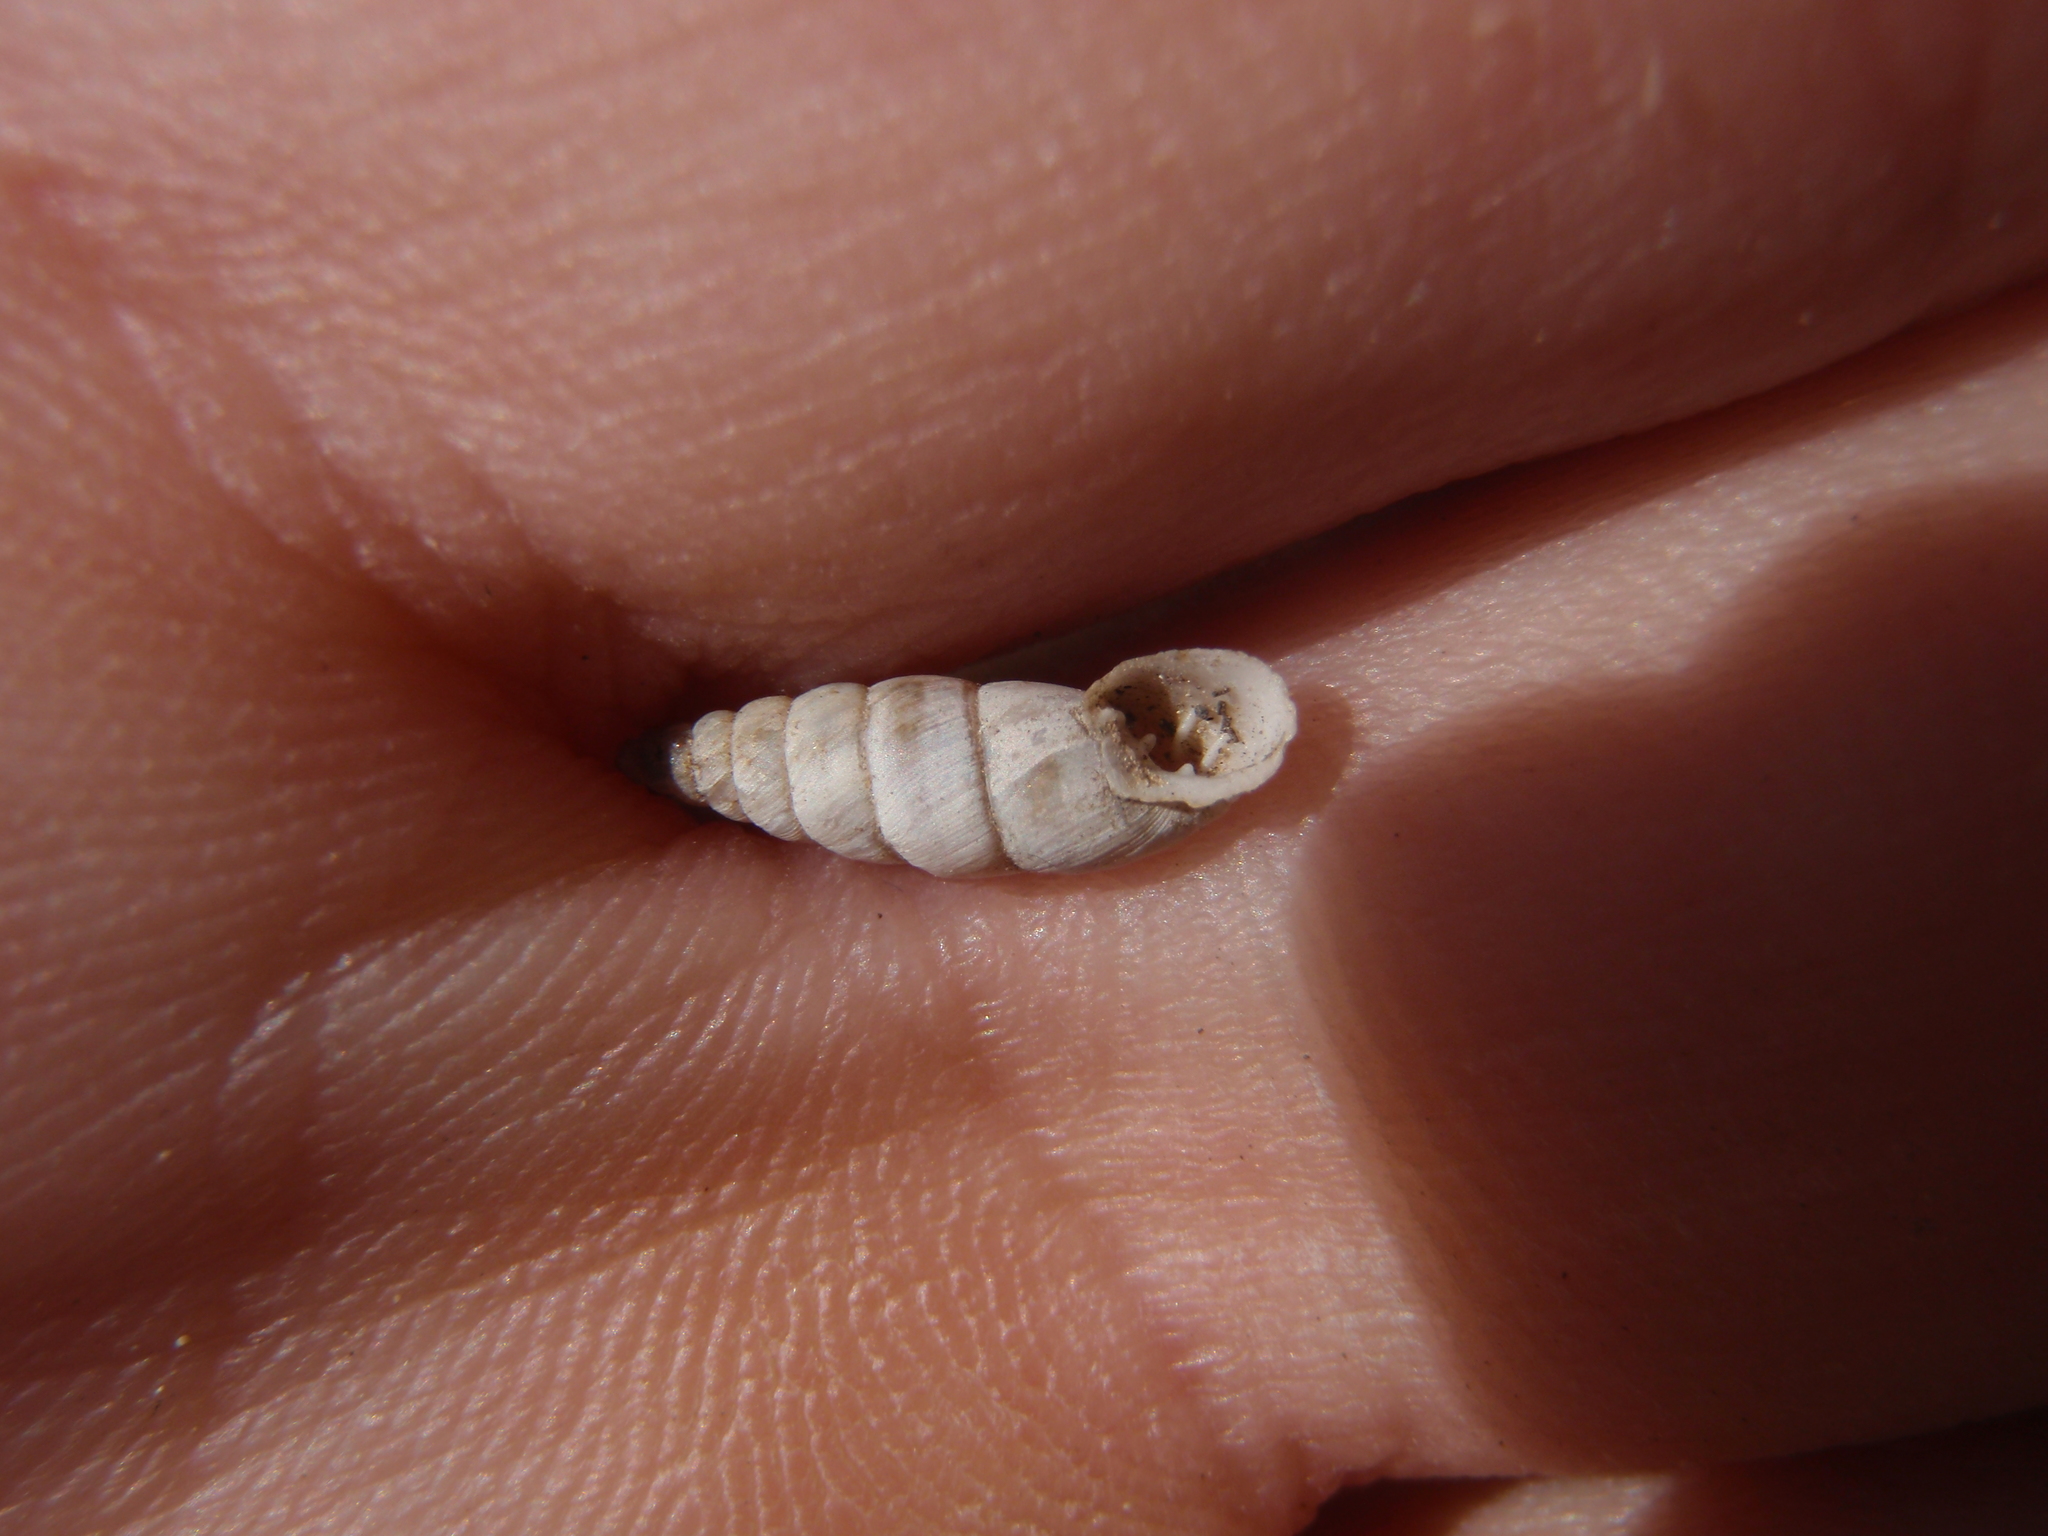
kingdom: Animalia
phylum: Mollusca
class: Gastropoda
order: Stylommatophora
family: Chondrinidae
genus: Solatopupa
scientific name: Solatopupa similis
